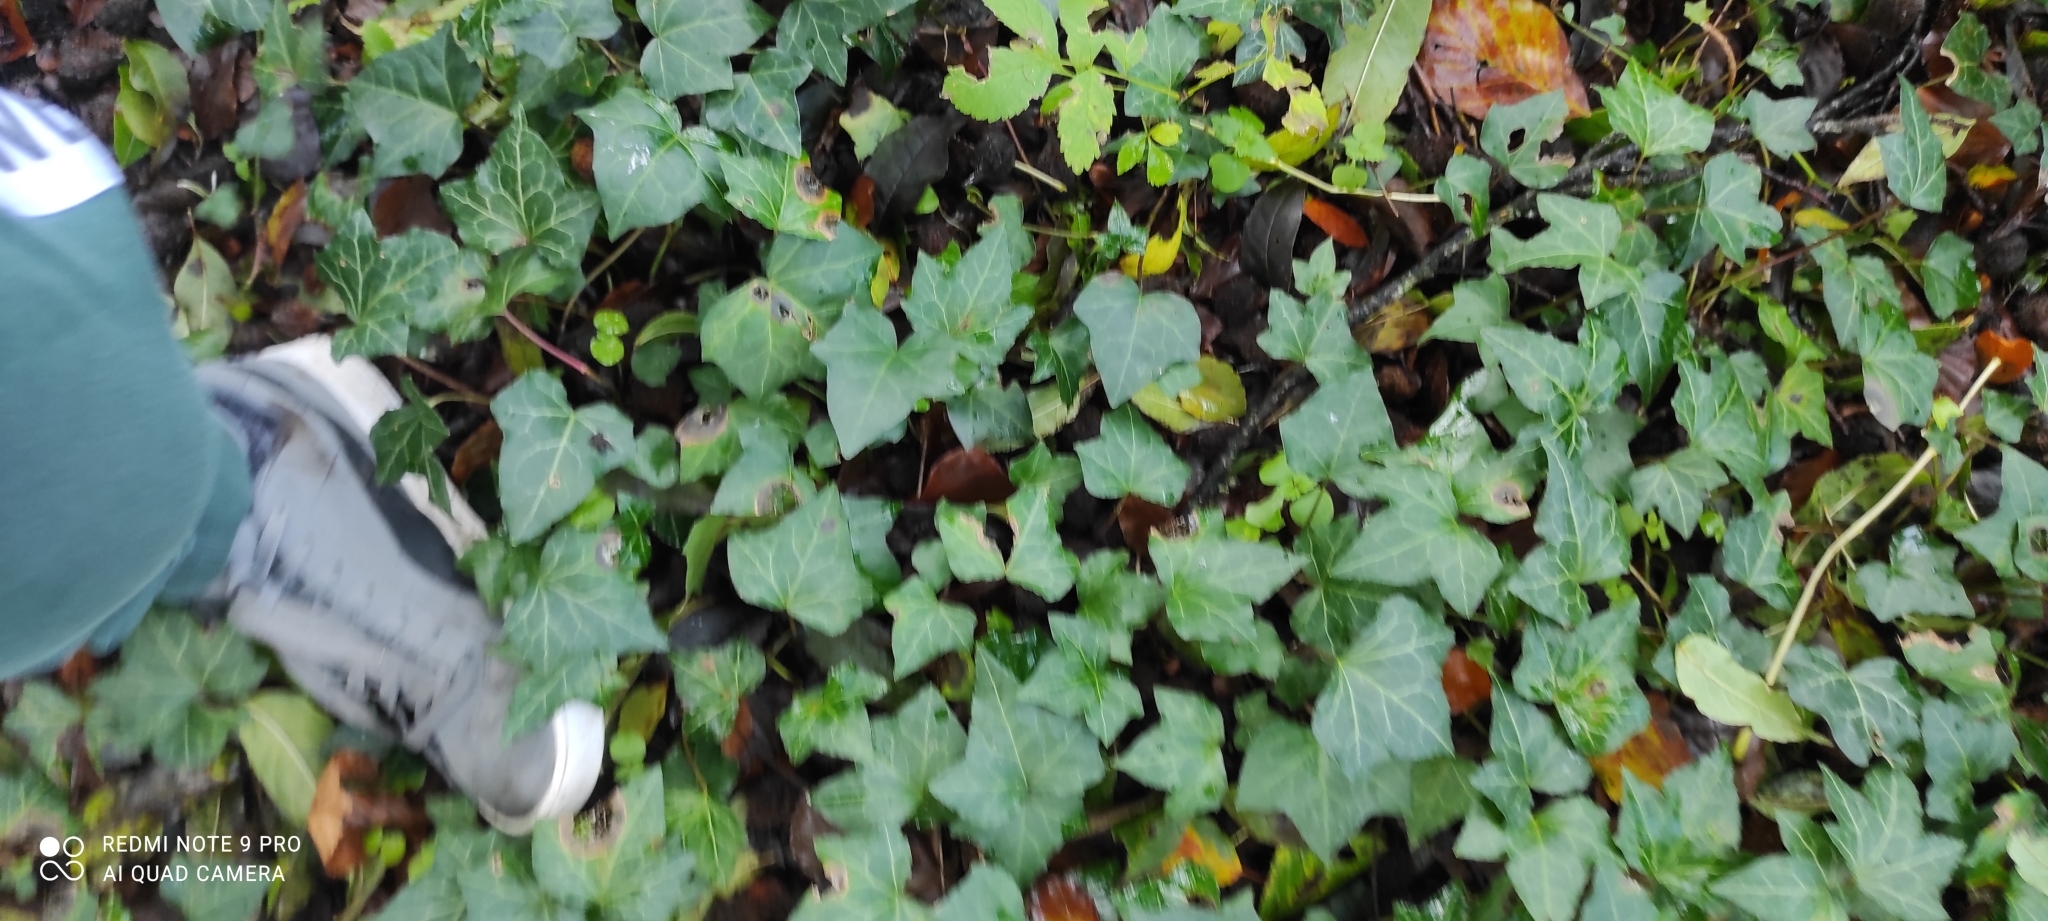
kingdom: Plantae
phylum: Tracheophyta
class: Magnoliopsida
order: Apiales
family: Araliaceae
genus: Hedera
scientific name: Hedera helix
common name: Ivy
